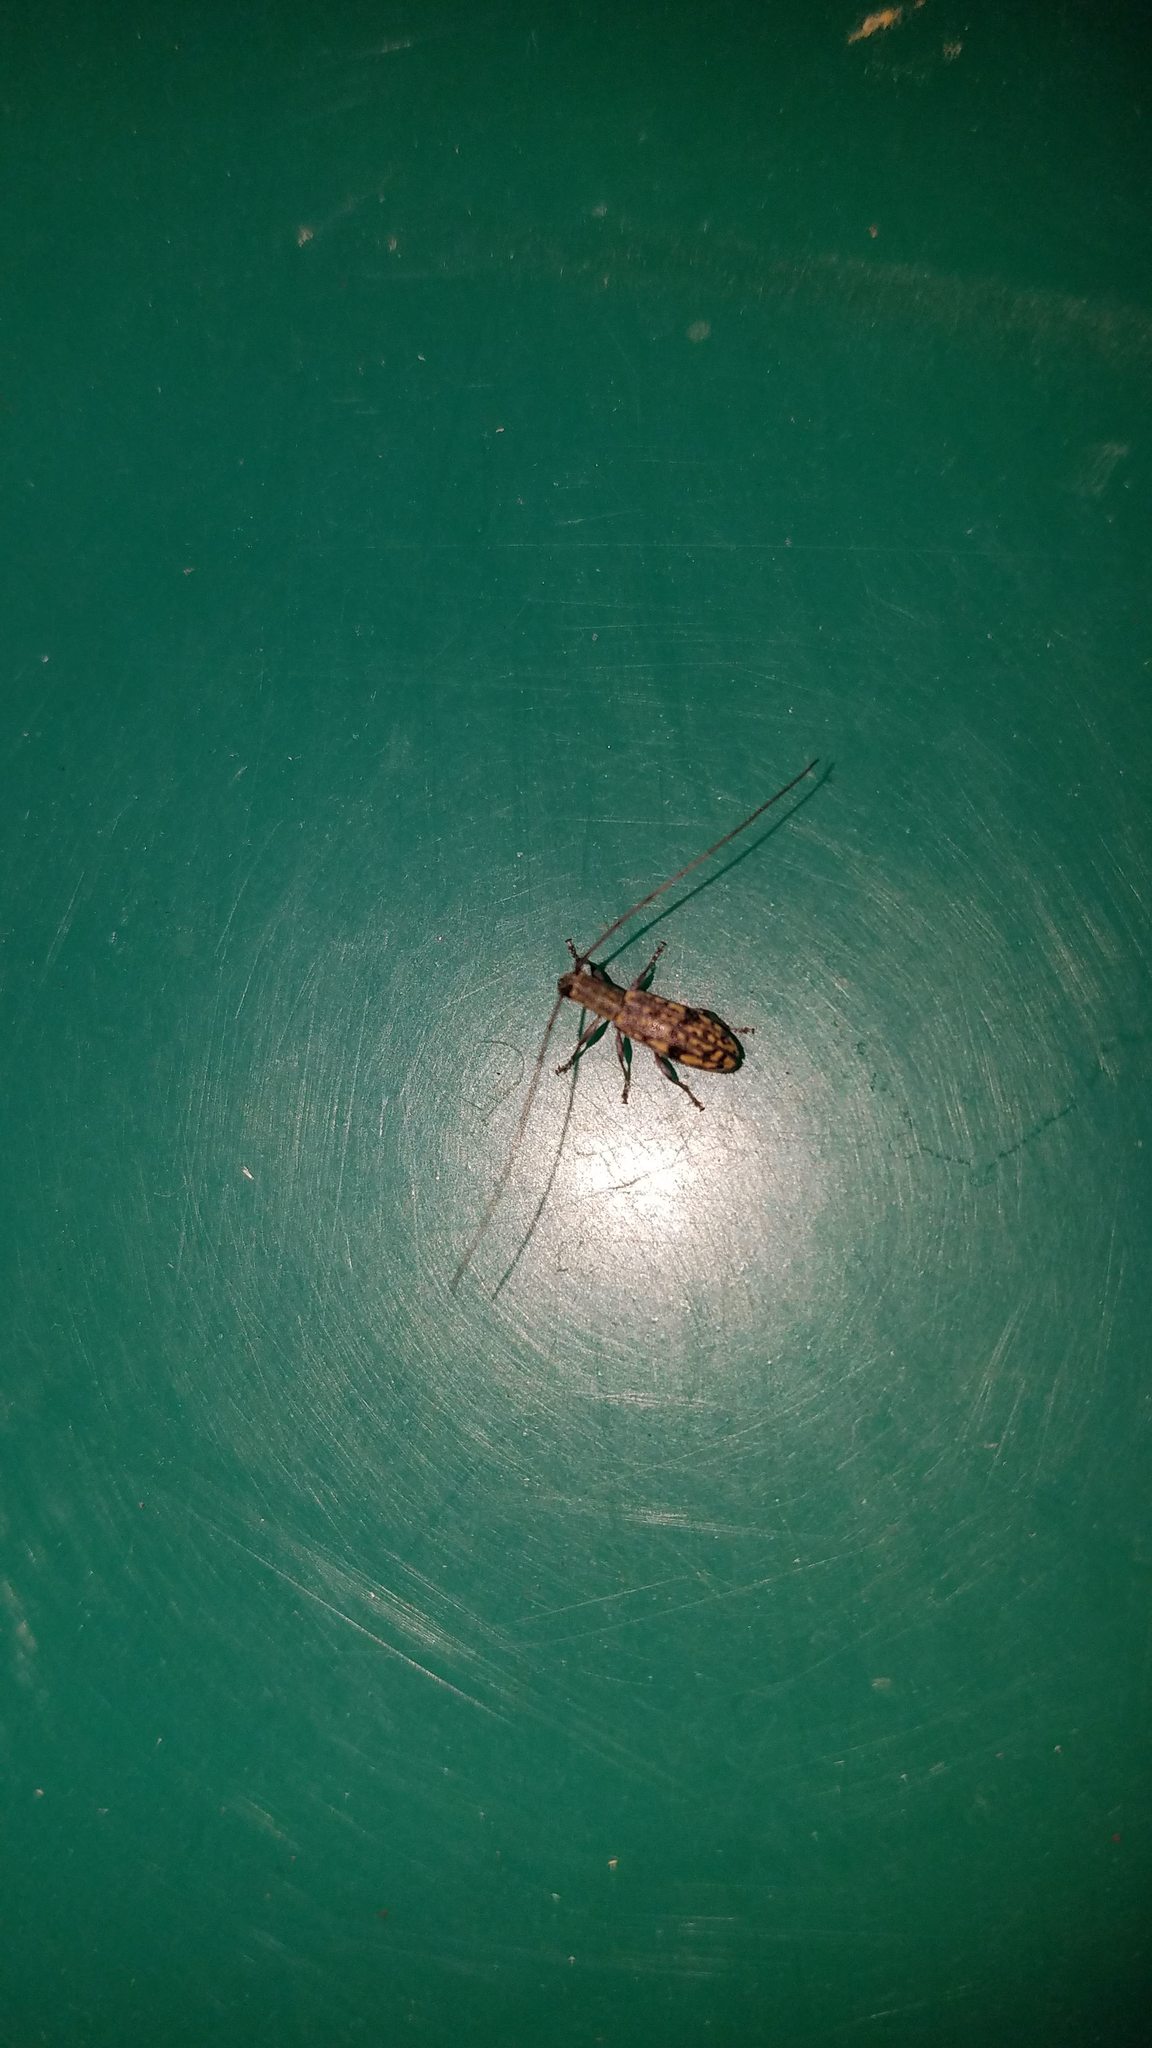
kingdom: Animalia
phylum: Arthropoda
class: Insecta
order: Coleoptera
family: Cerambycidae
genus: Dorcaschema
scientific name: Dorcaschema alternatum
